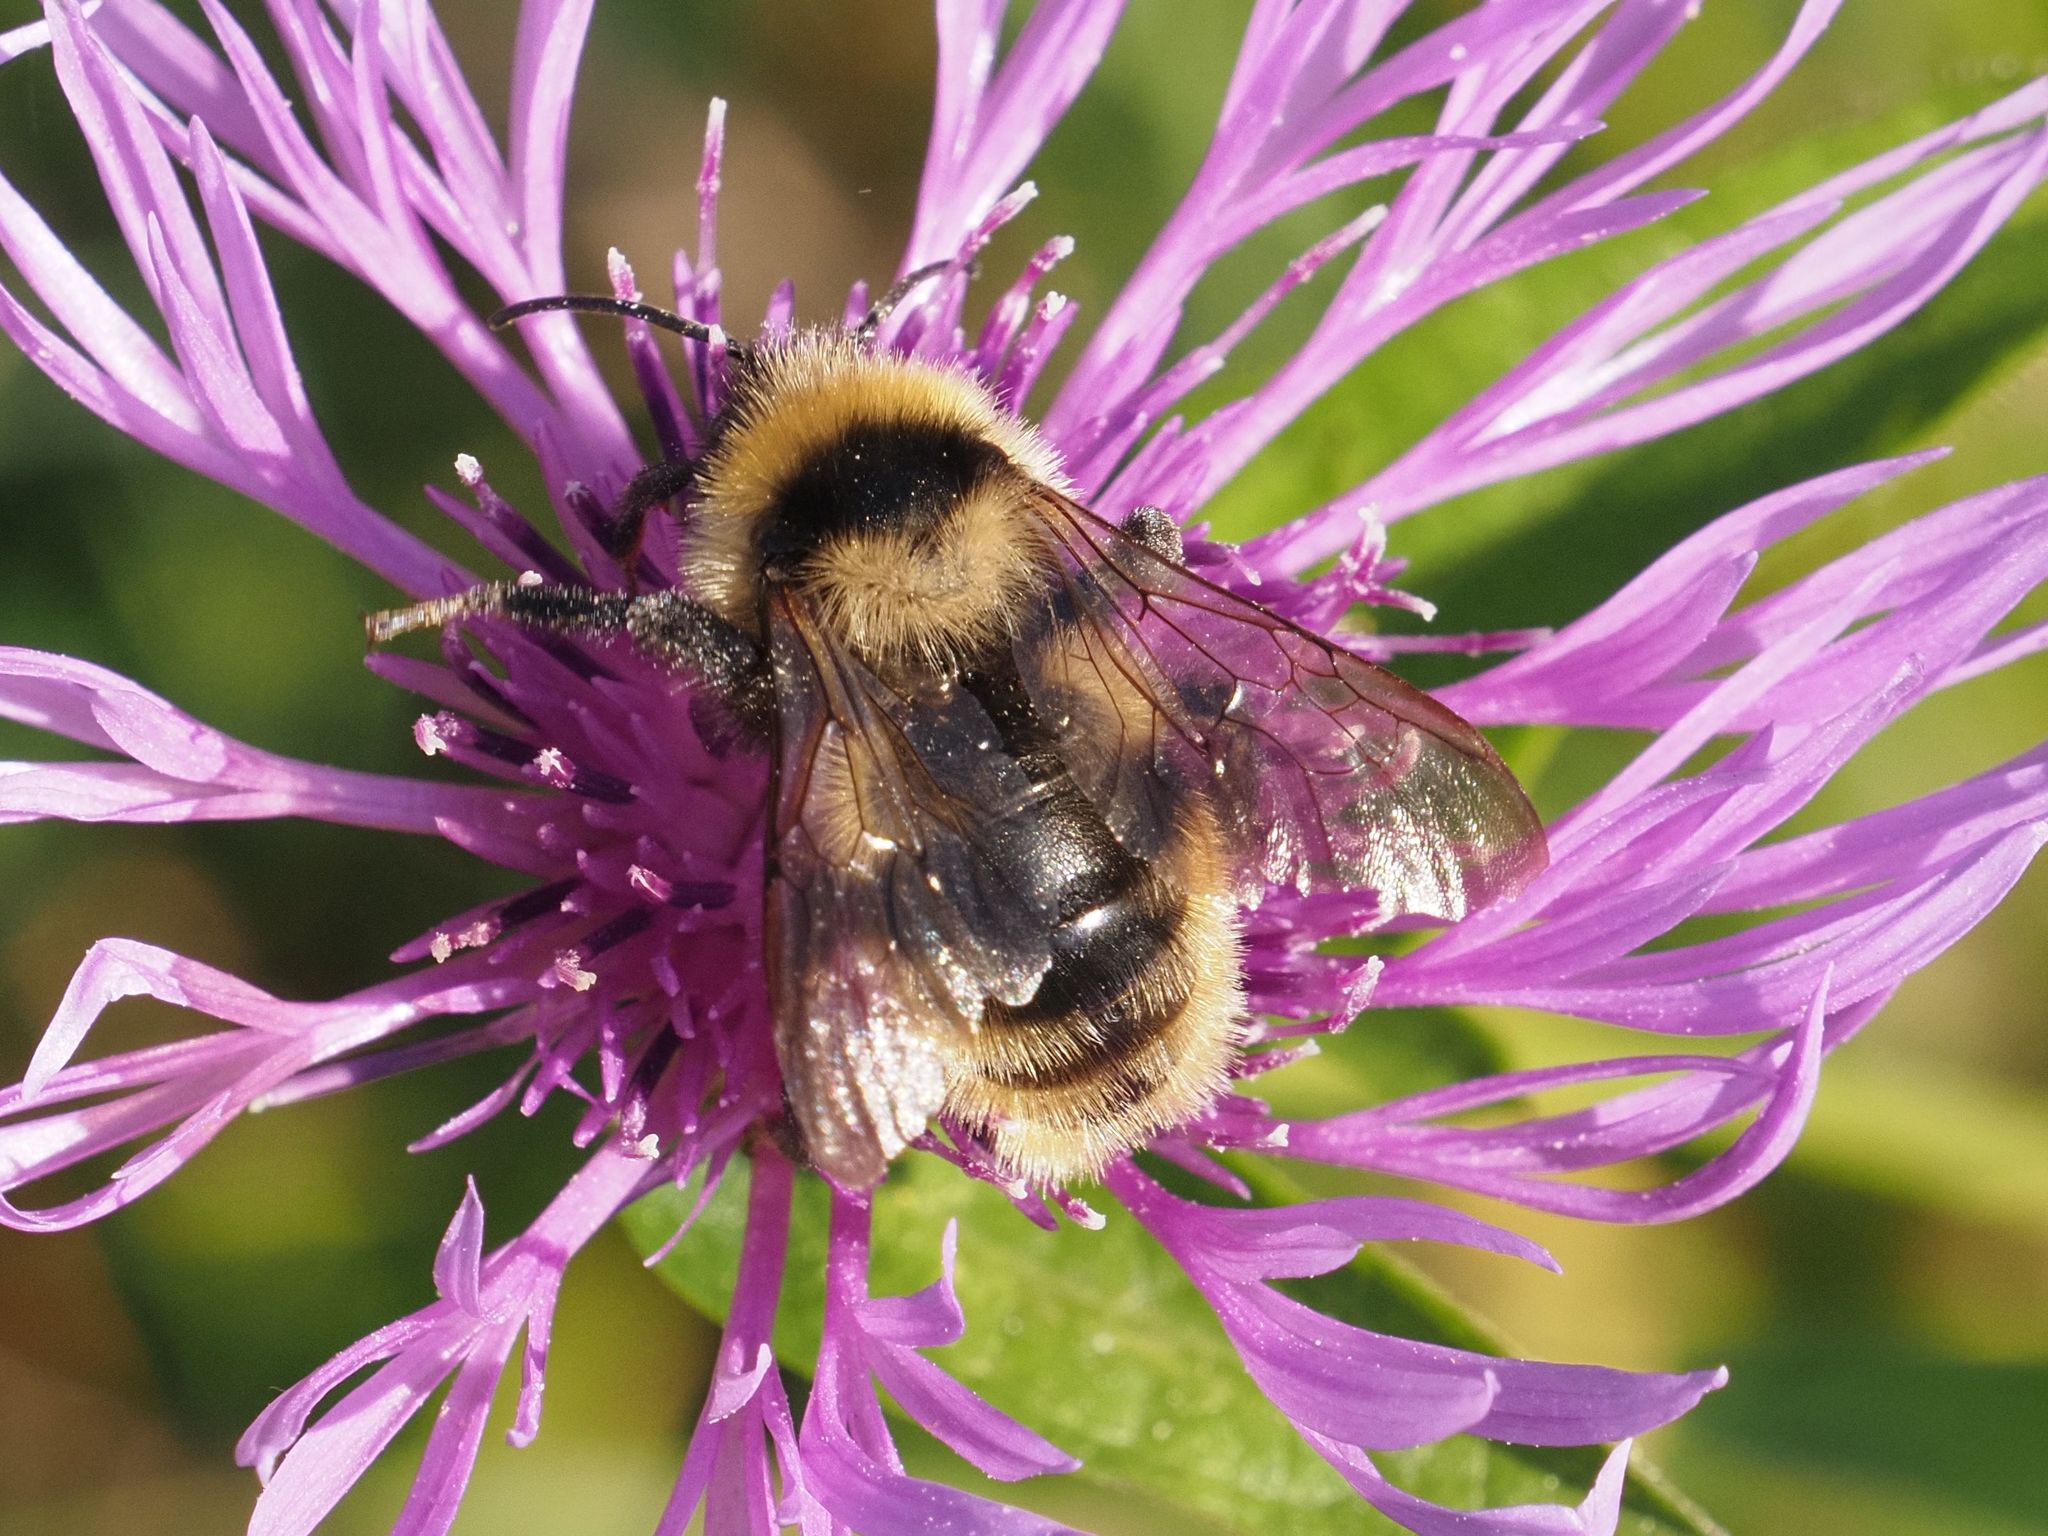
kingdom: Animalia
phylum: Arthropoda
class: Insecta
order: Hymenoptera
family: Apidae
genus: Bombus
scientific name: Bombus campestris
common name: Field cuckoo-bee
